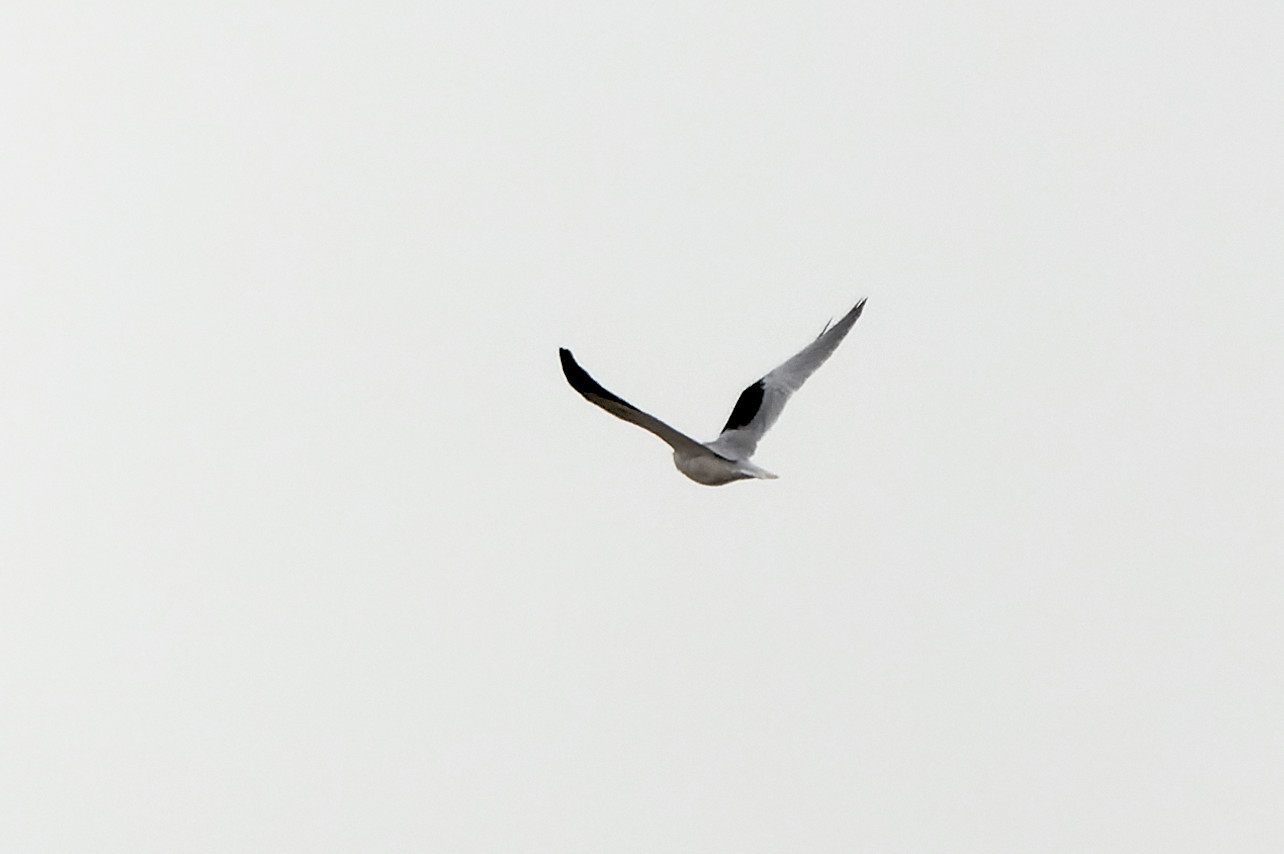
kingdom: Animalia
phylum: Chordata
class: Aves
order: Accipitriformes
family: Accipitridae
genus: Elanus
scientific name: Elanus caeruleus
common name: Black-winged kite
